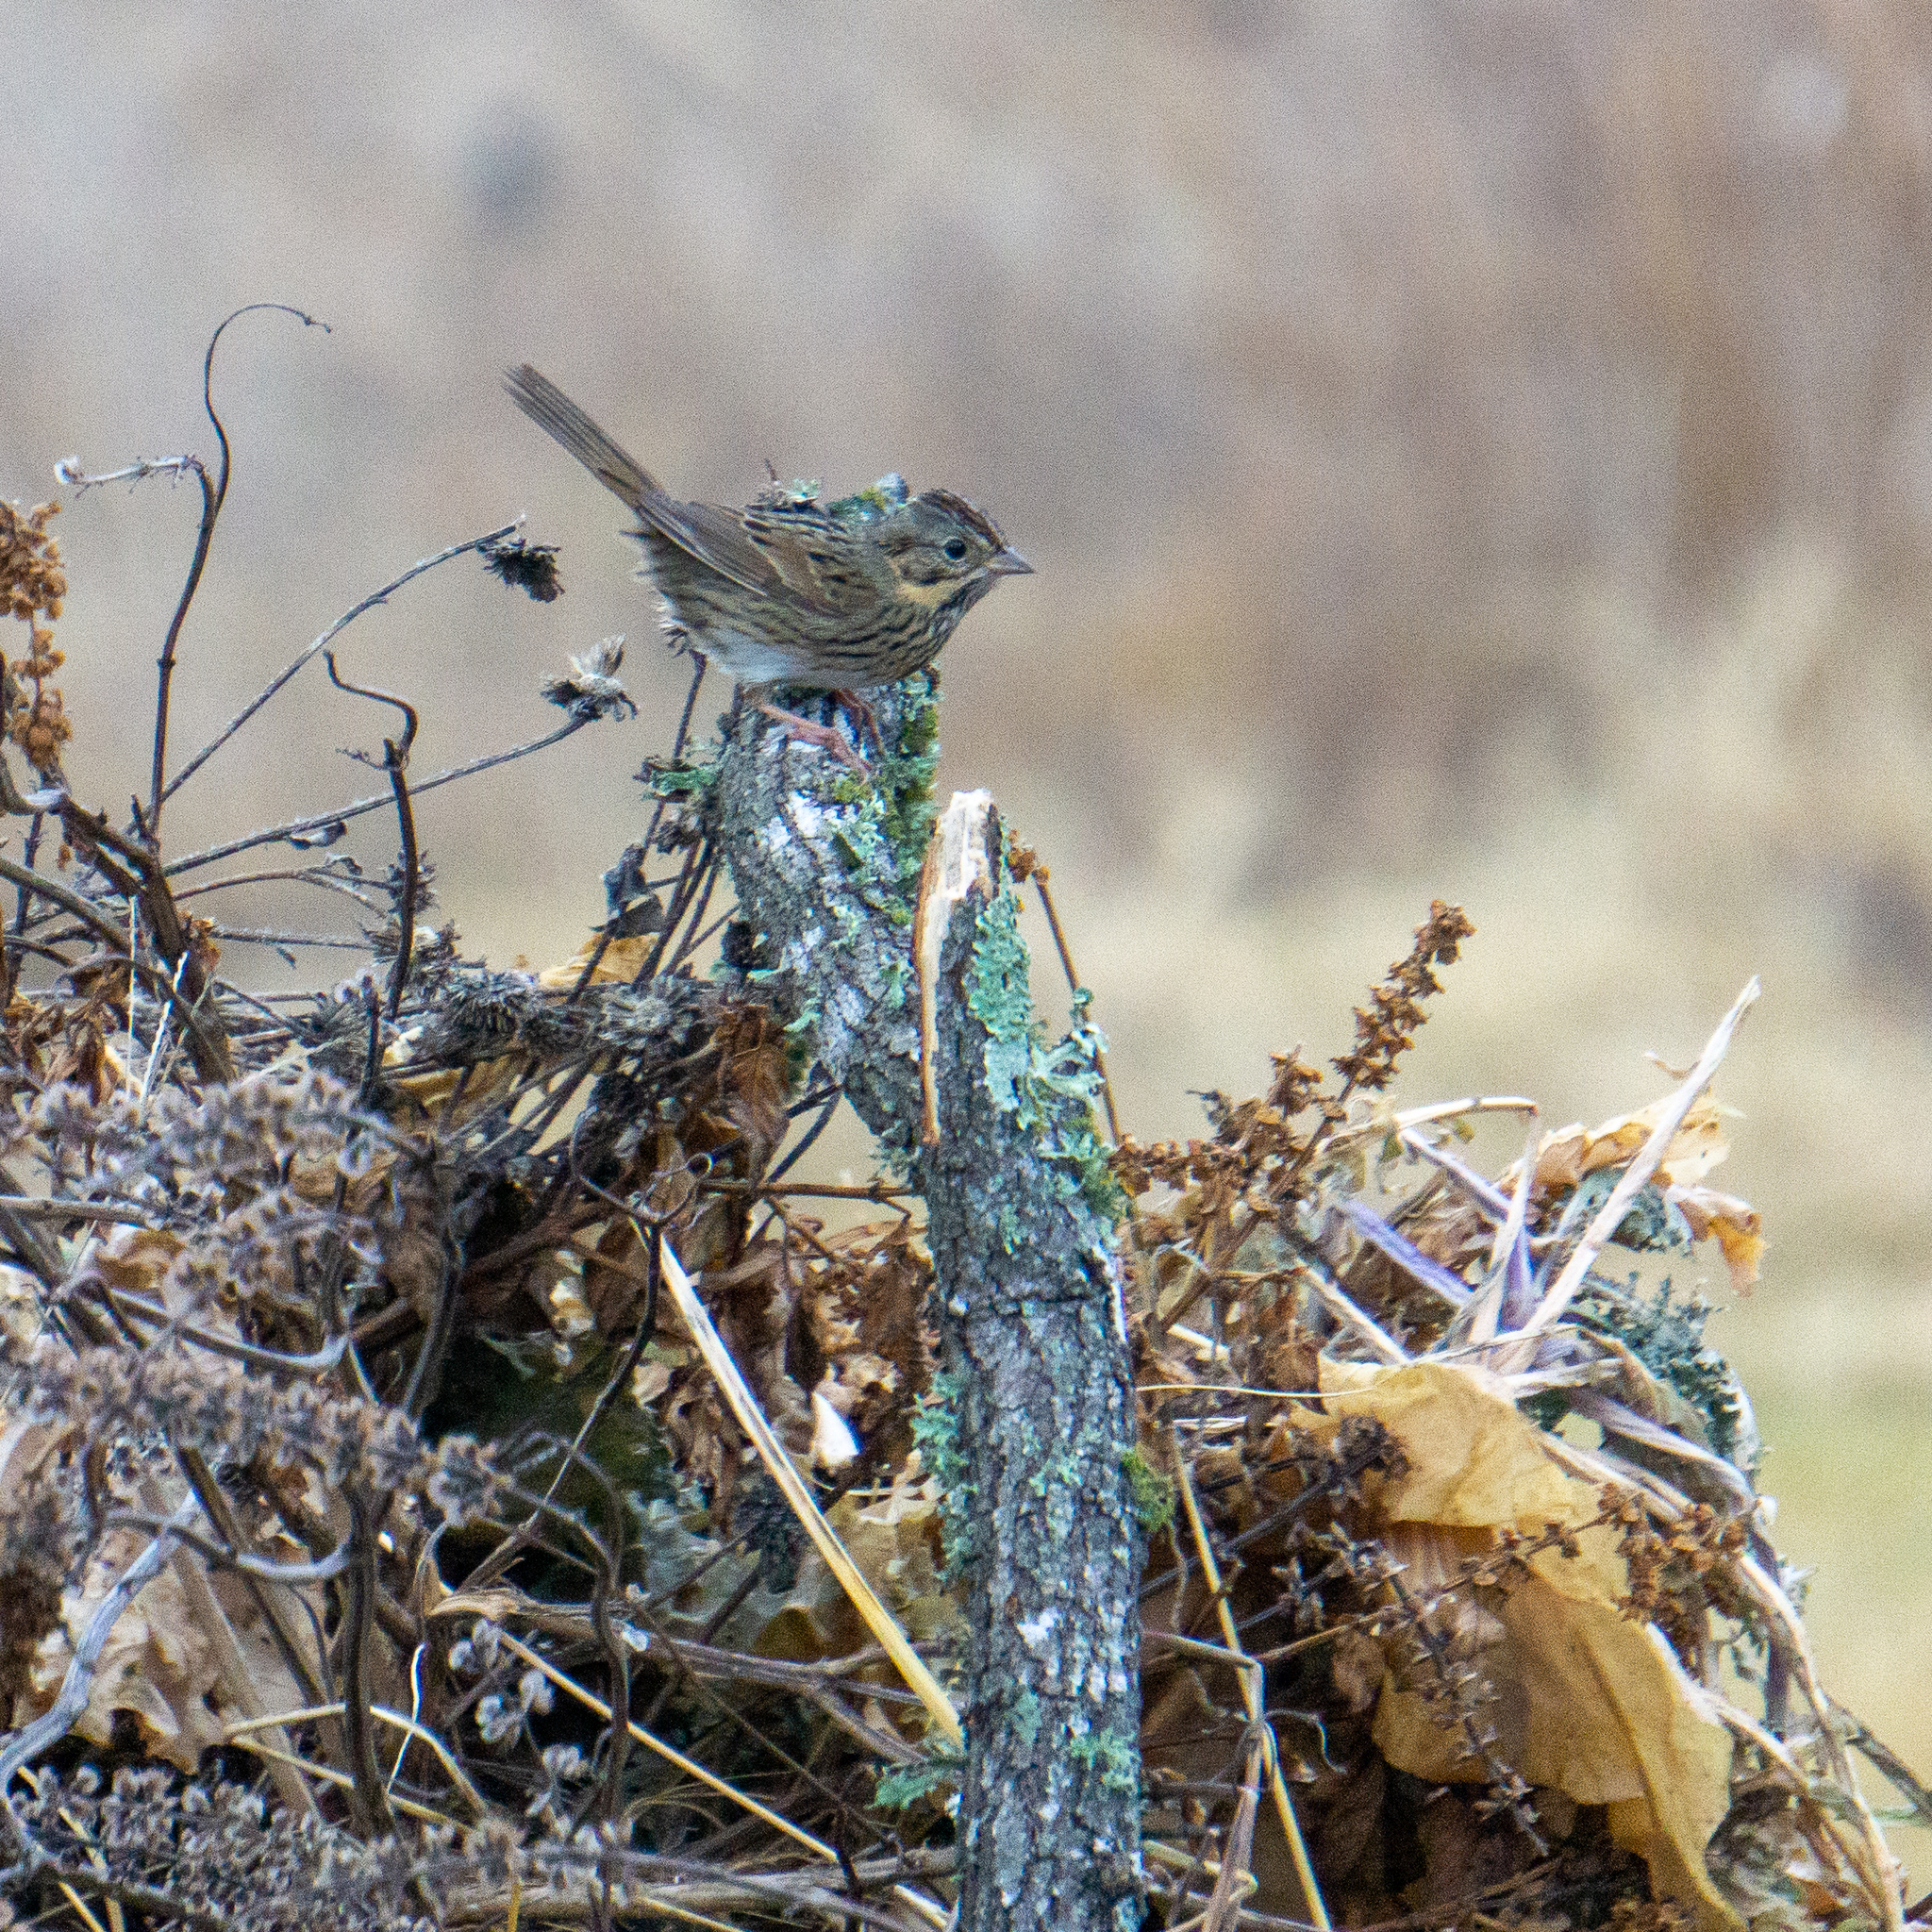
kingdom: Animalia
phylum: Chordata
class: Aves
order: Passeriformes
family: Passerellidae
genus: Melospiza
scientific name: Melospiza lincolnii
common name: Lincoln's sparrow
